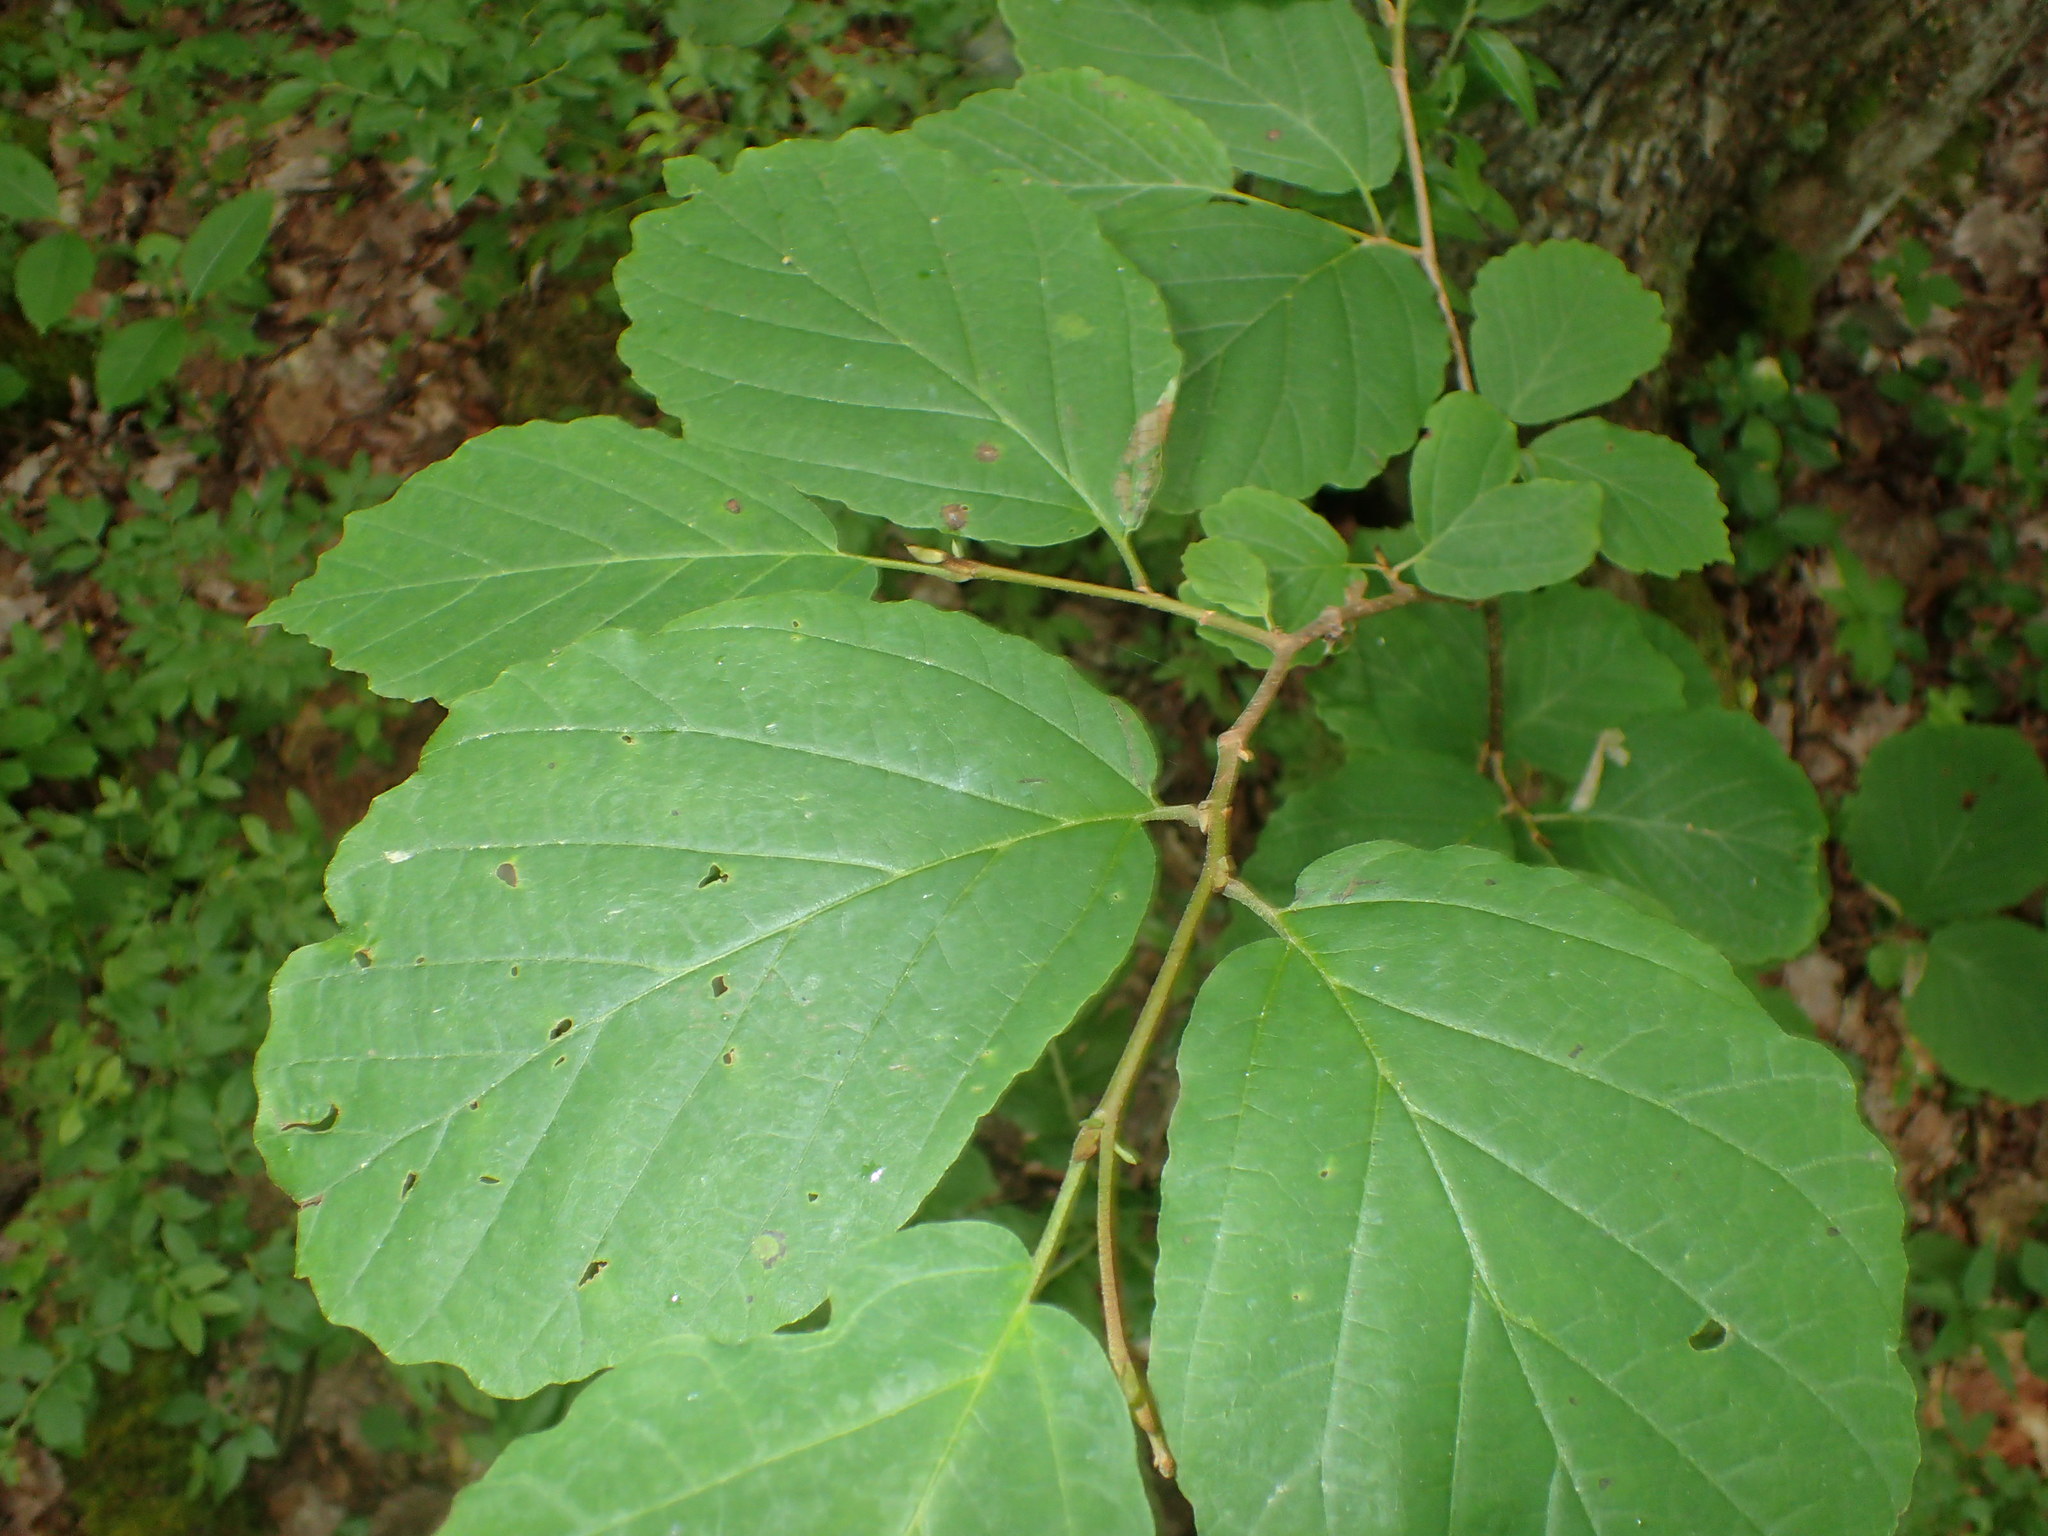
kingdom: Plantae
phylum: Tracheophyta
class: Magnoliopsida
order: Saxifragales
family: Hamamelidaceae
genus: Hamamelis
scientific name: Hamamelis virginiana
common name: Witch-hazel
